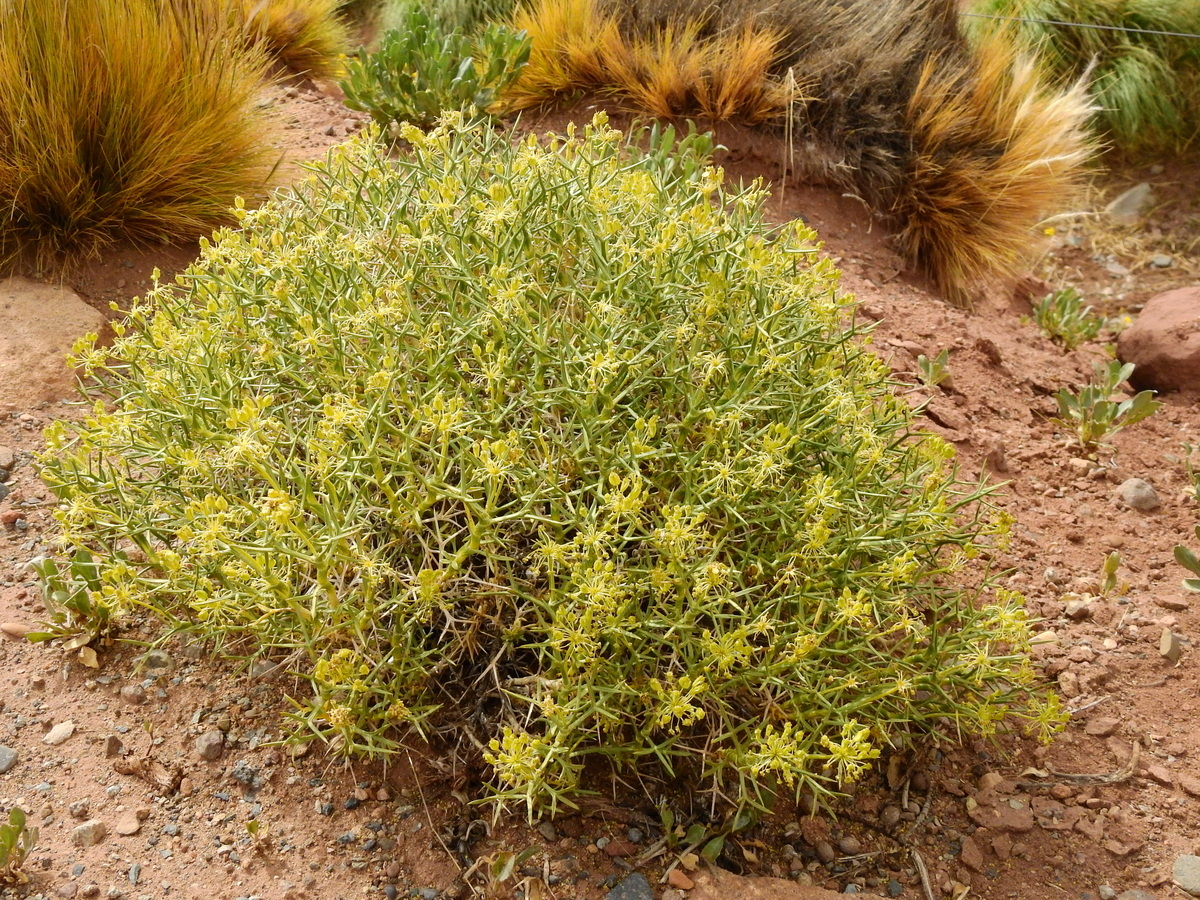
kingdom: Plantae
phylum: Tracheophyta
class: Magnoliopsida
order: Apiales
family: Apiaceae
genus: Azorella
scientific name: Azorella prolifera
